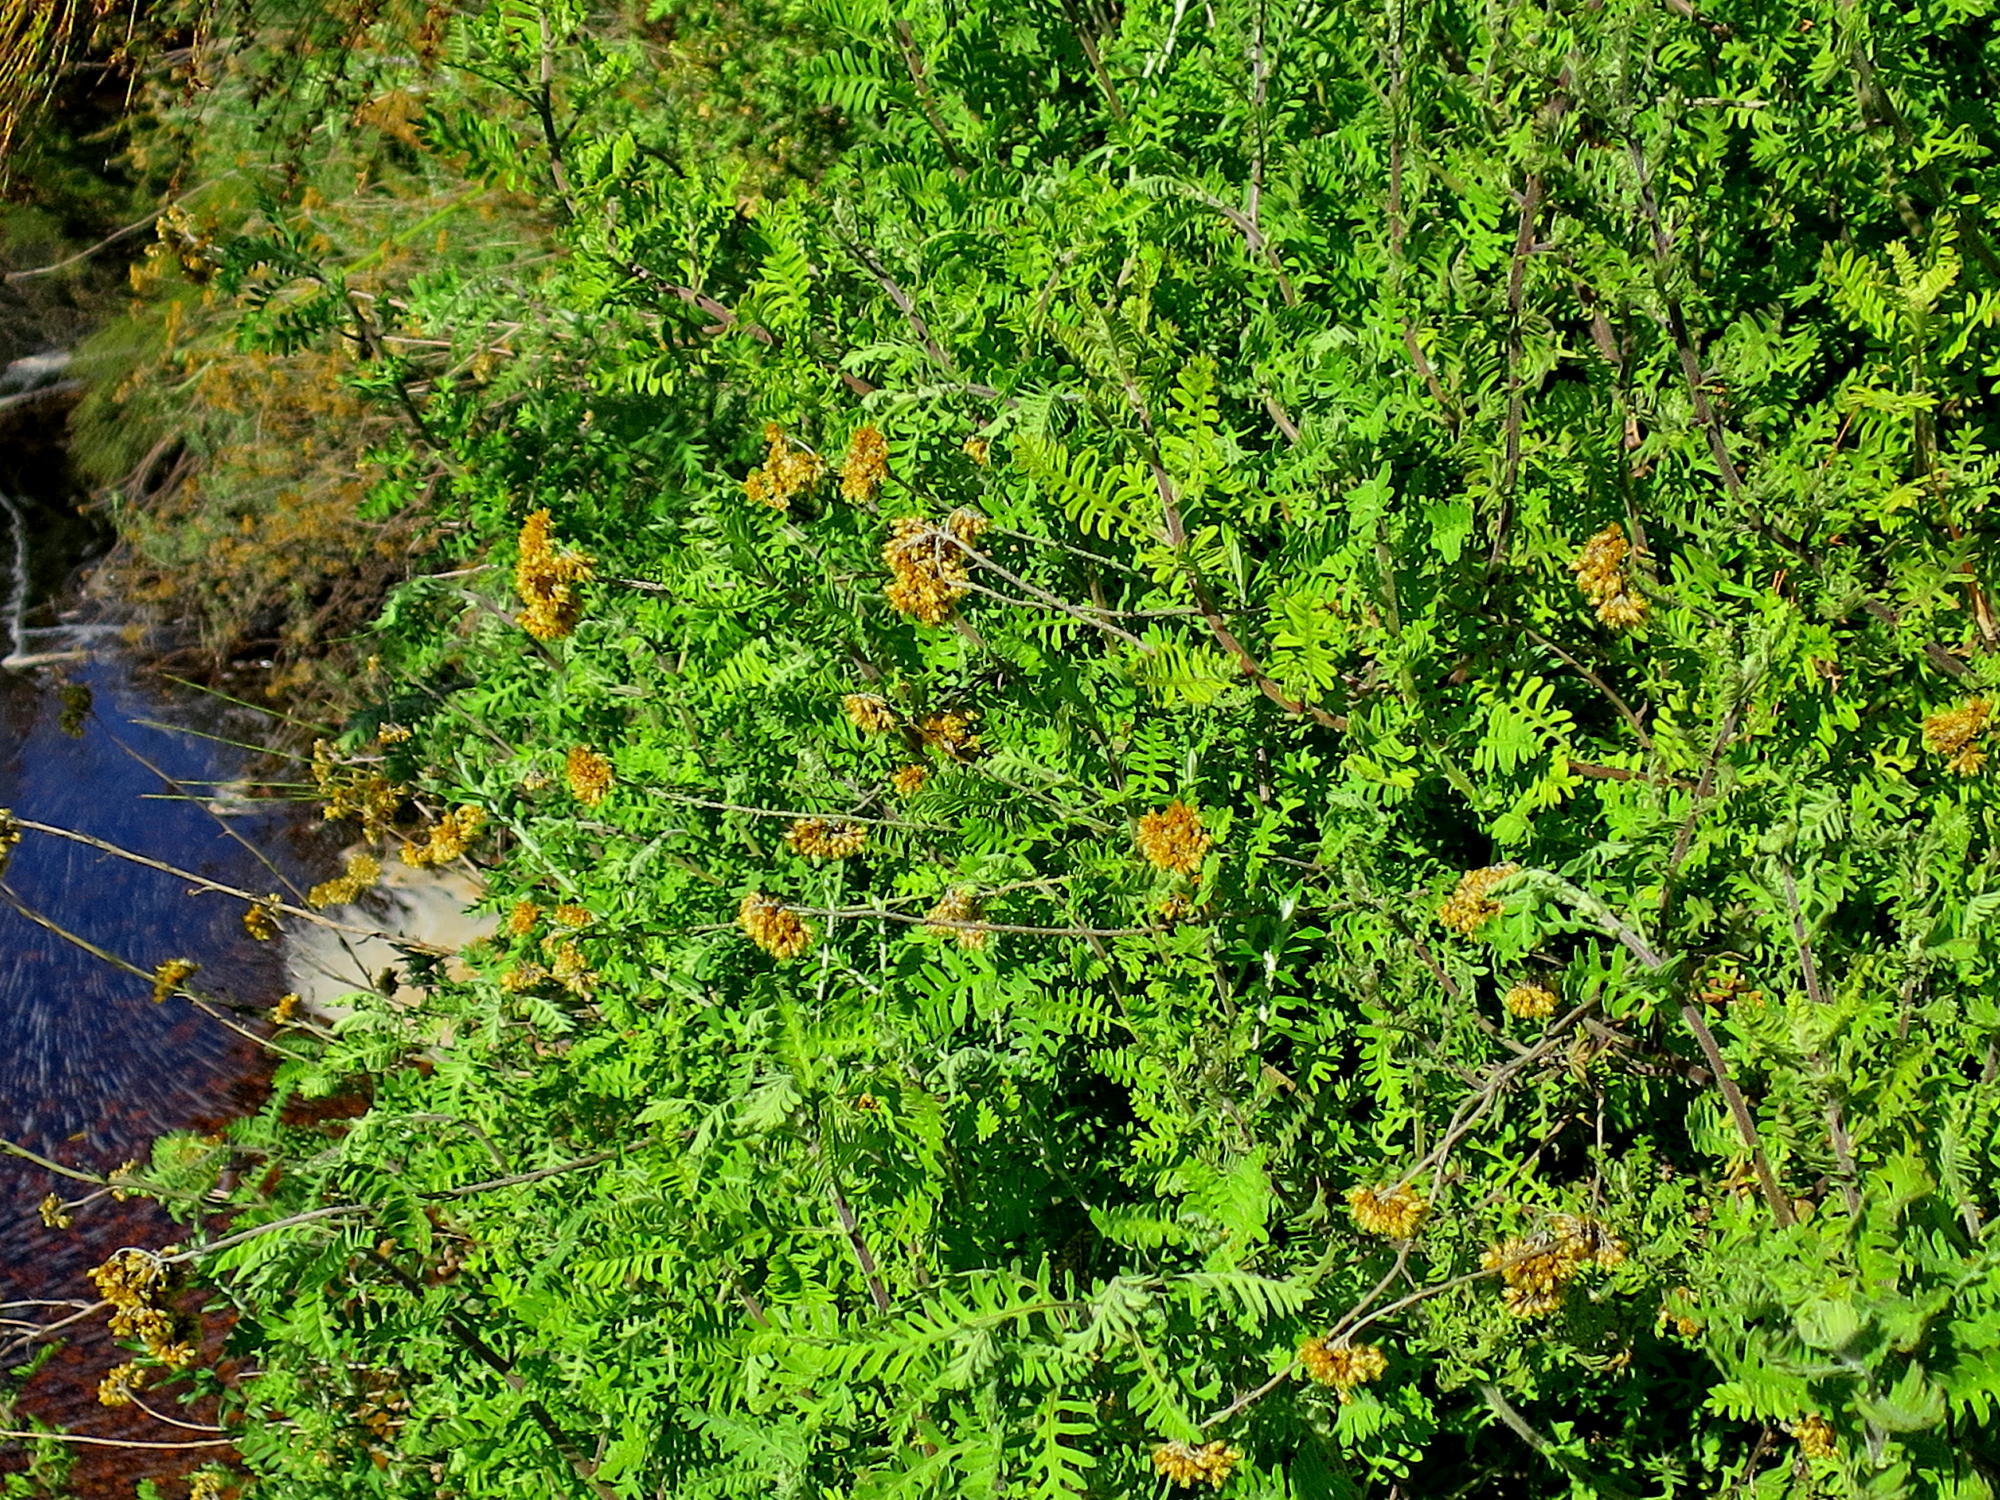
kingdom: Plantae
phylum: Tracheophyta
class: Magnoliopsida
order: Asterales
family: Asteraceae
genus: Hippia
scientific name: Hippia frutescens
